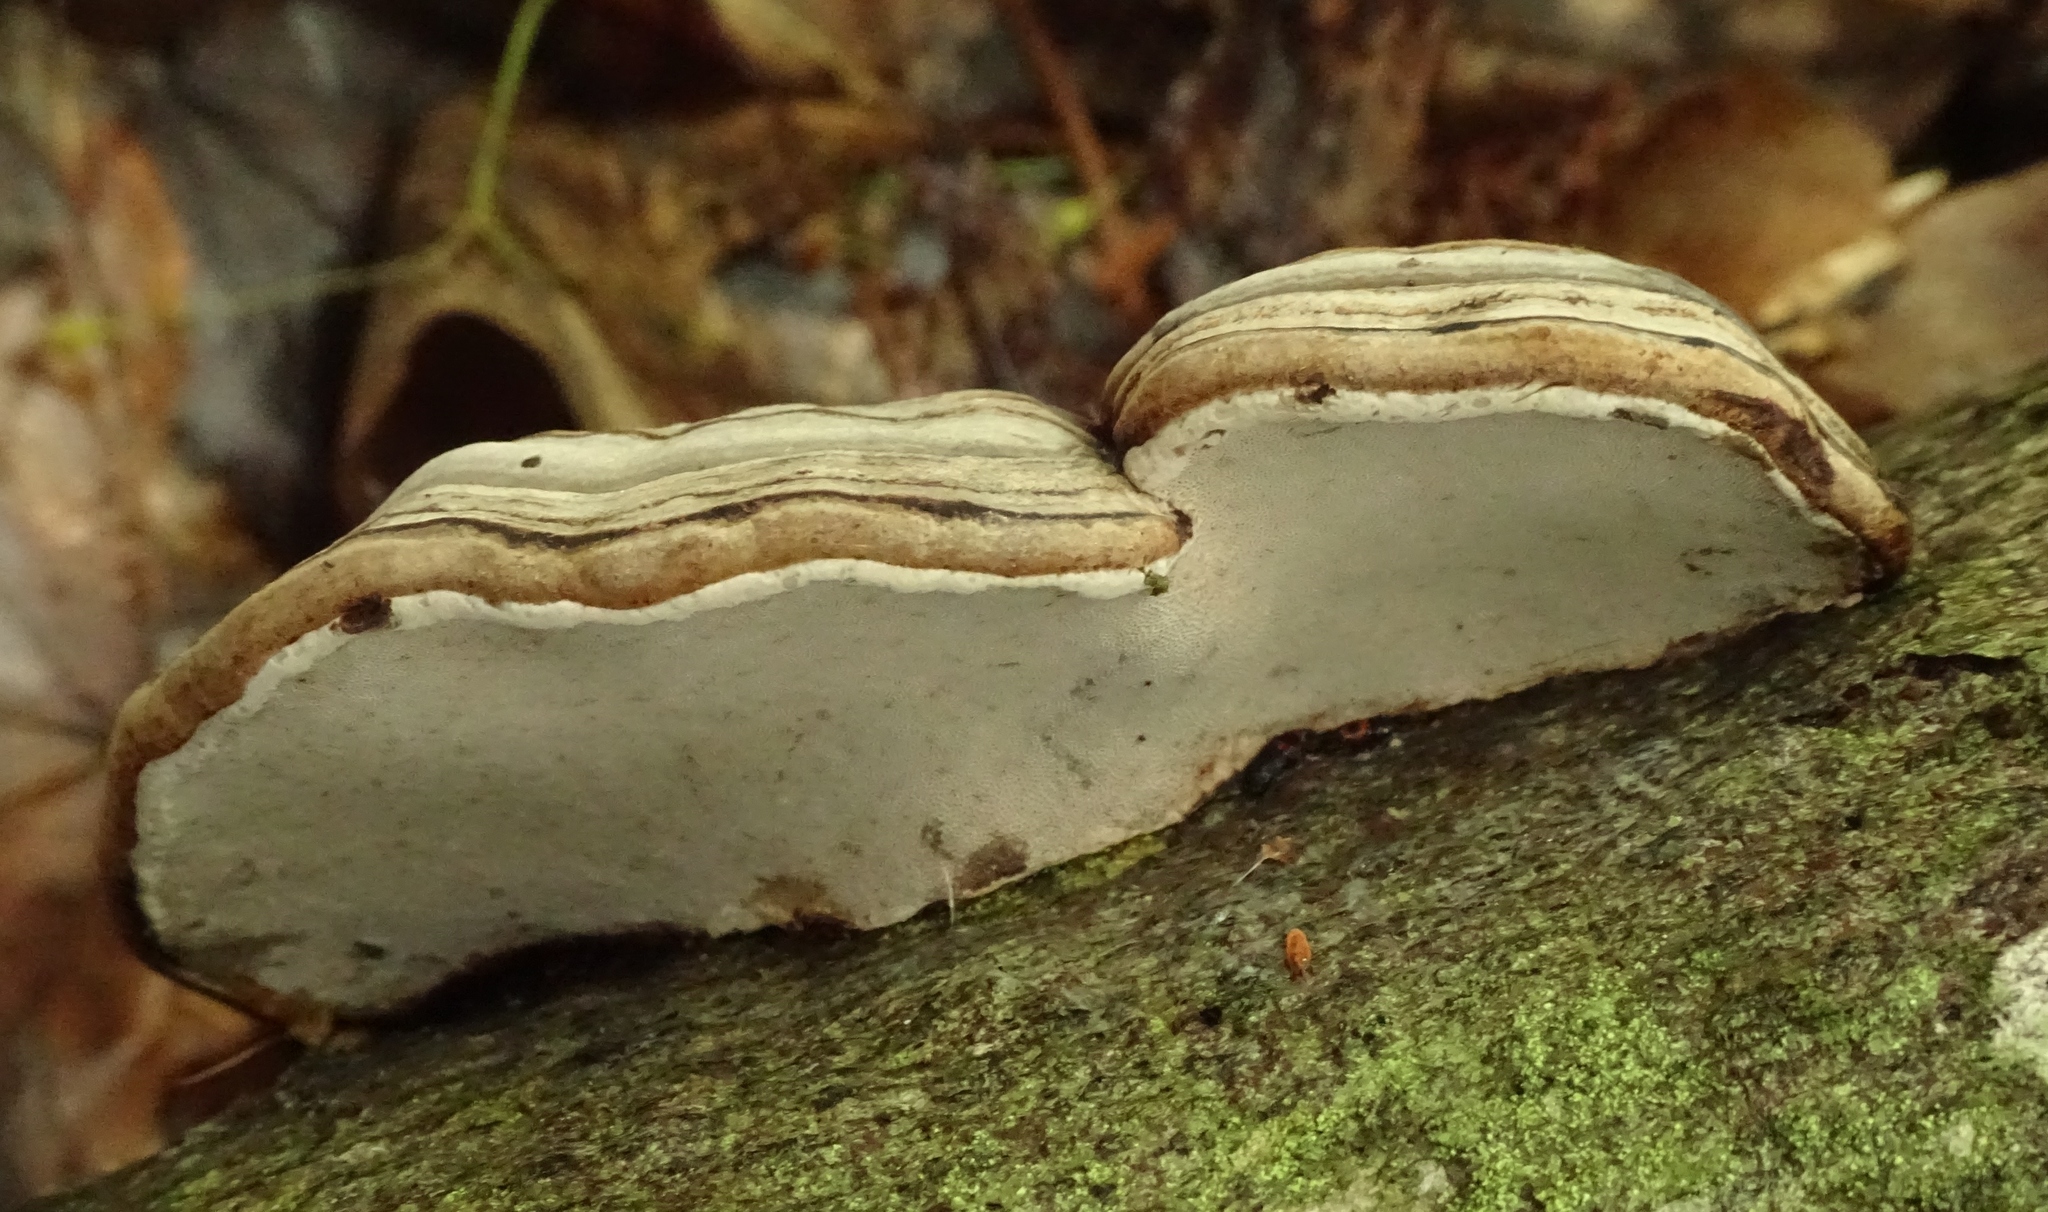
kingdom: Fungi
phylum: Basidiomycota
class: Agaricomycetes
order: Polyporales
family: Polyporaceae
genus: Fomes
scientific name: Fomes fomentarius
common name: Hoof fungus
